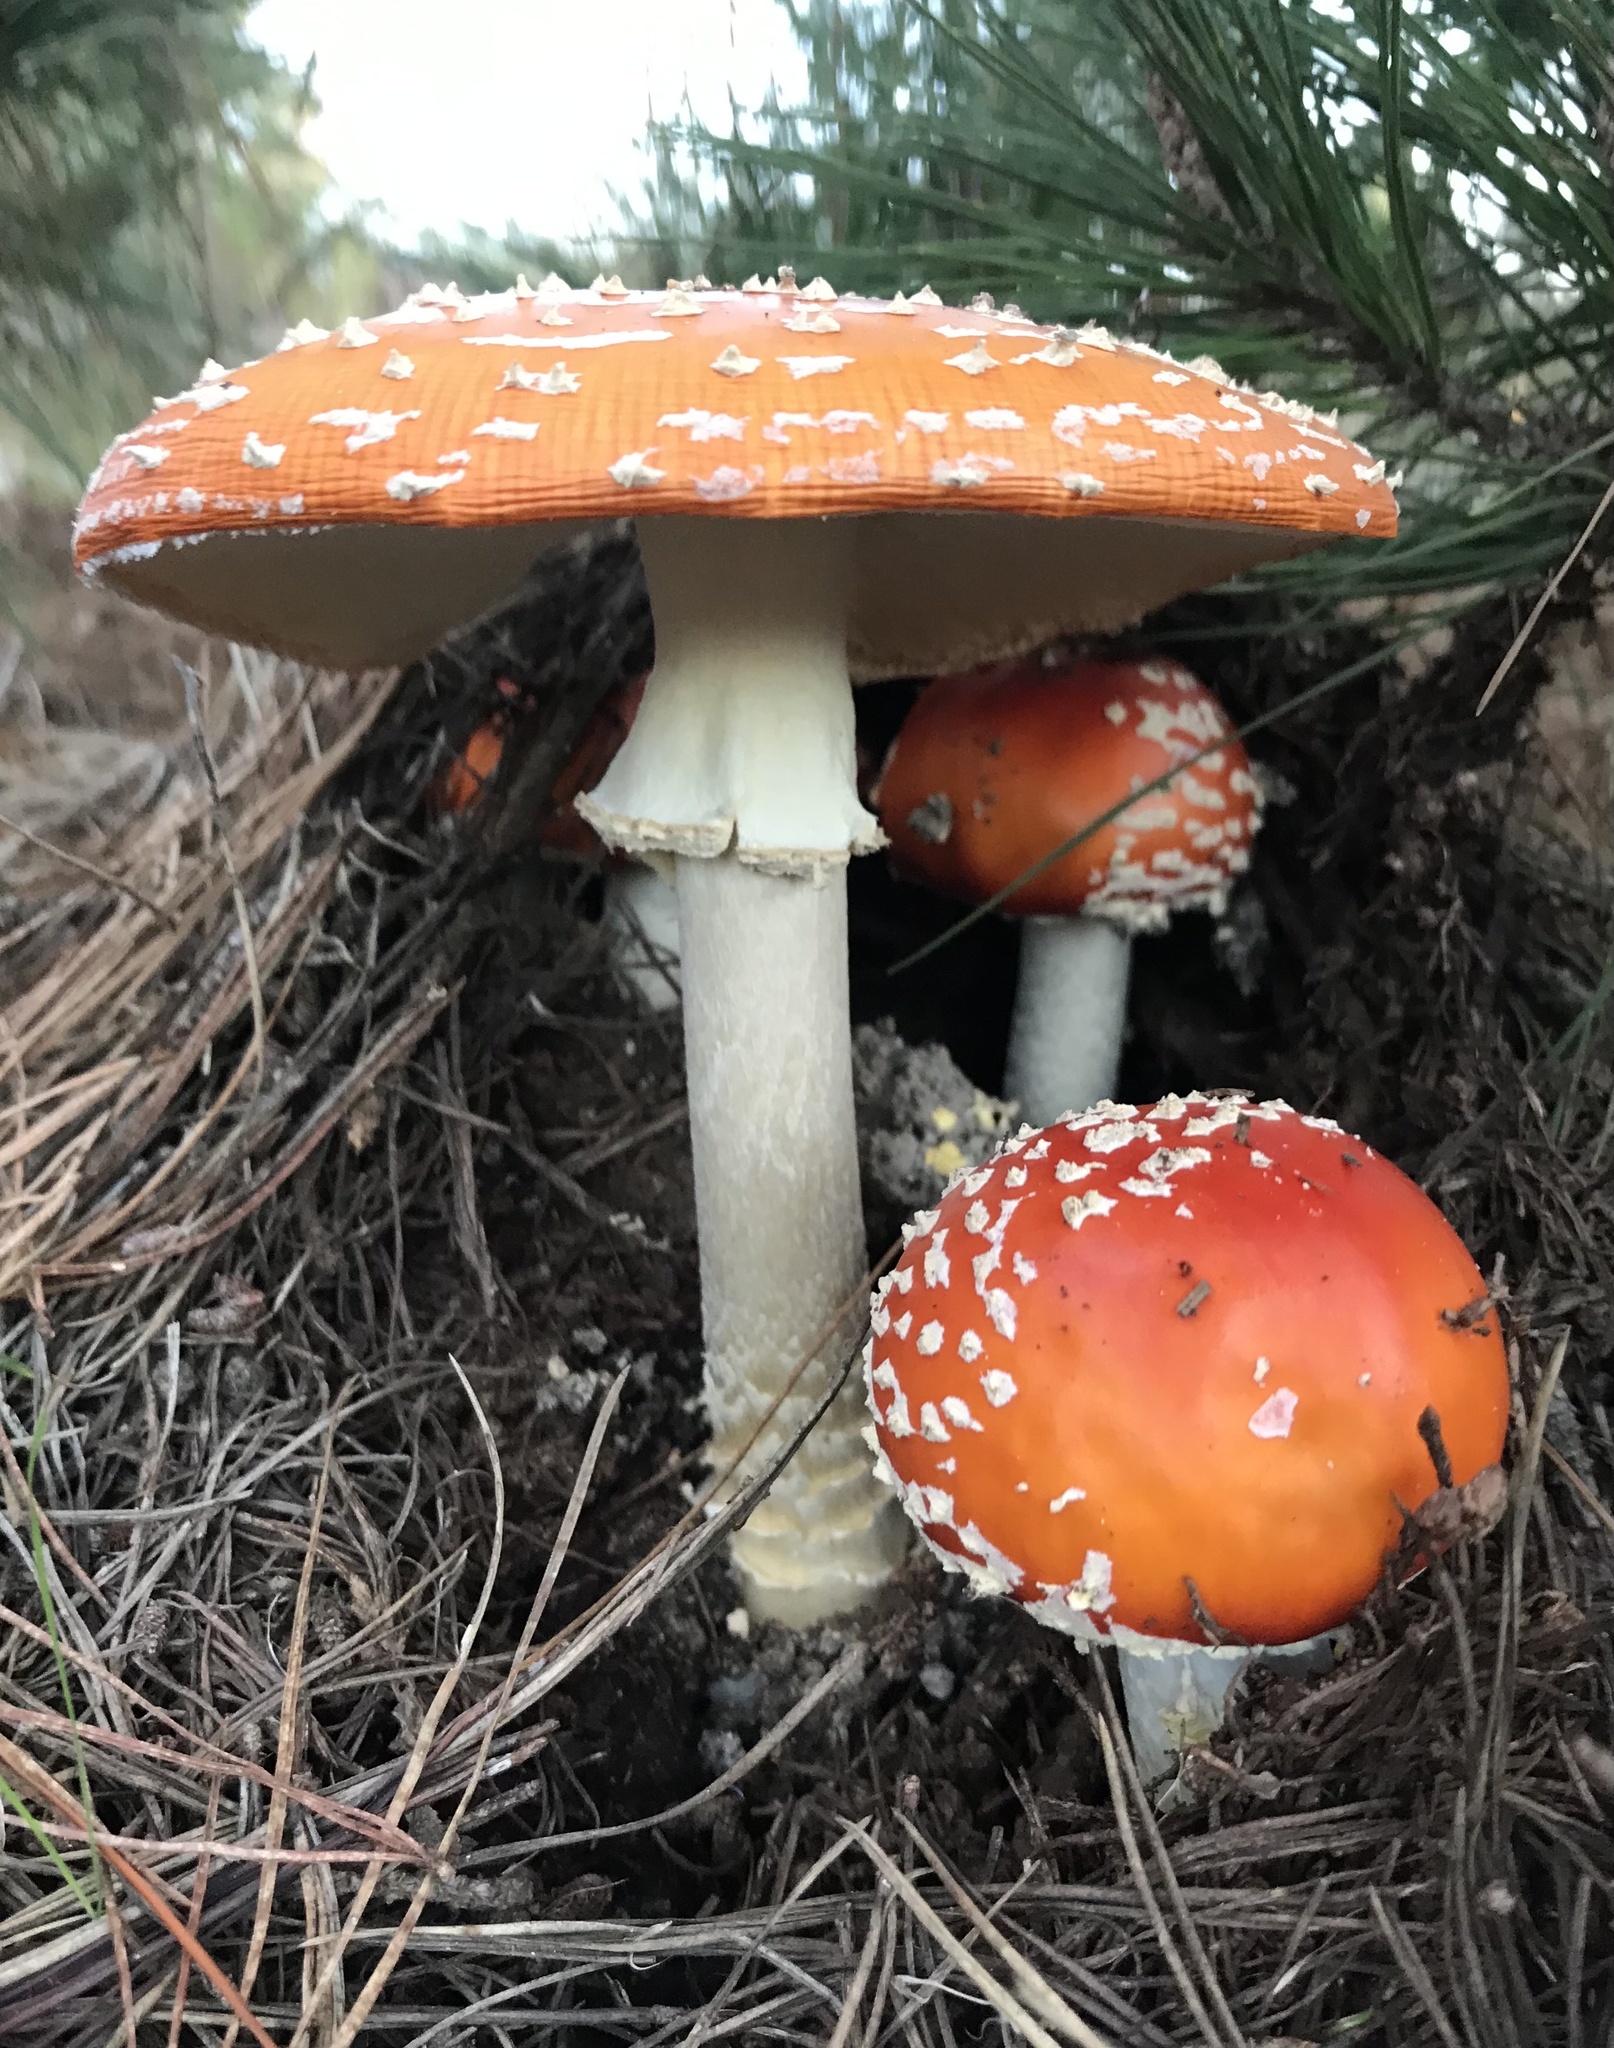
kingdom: Fungi
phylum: Basidiomycota
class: Agaricomycetes
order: Agaricales
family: Amanitaceae
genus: Amanita
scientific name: Amanita muscaria
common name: Fly agaric
